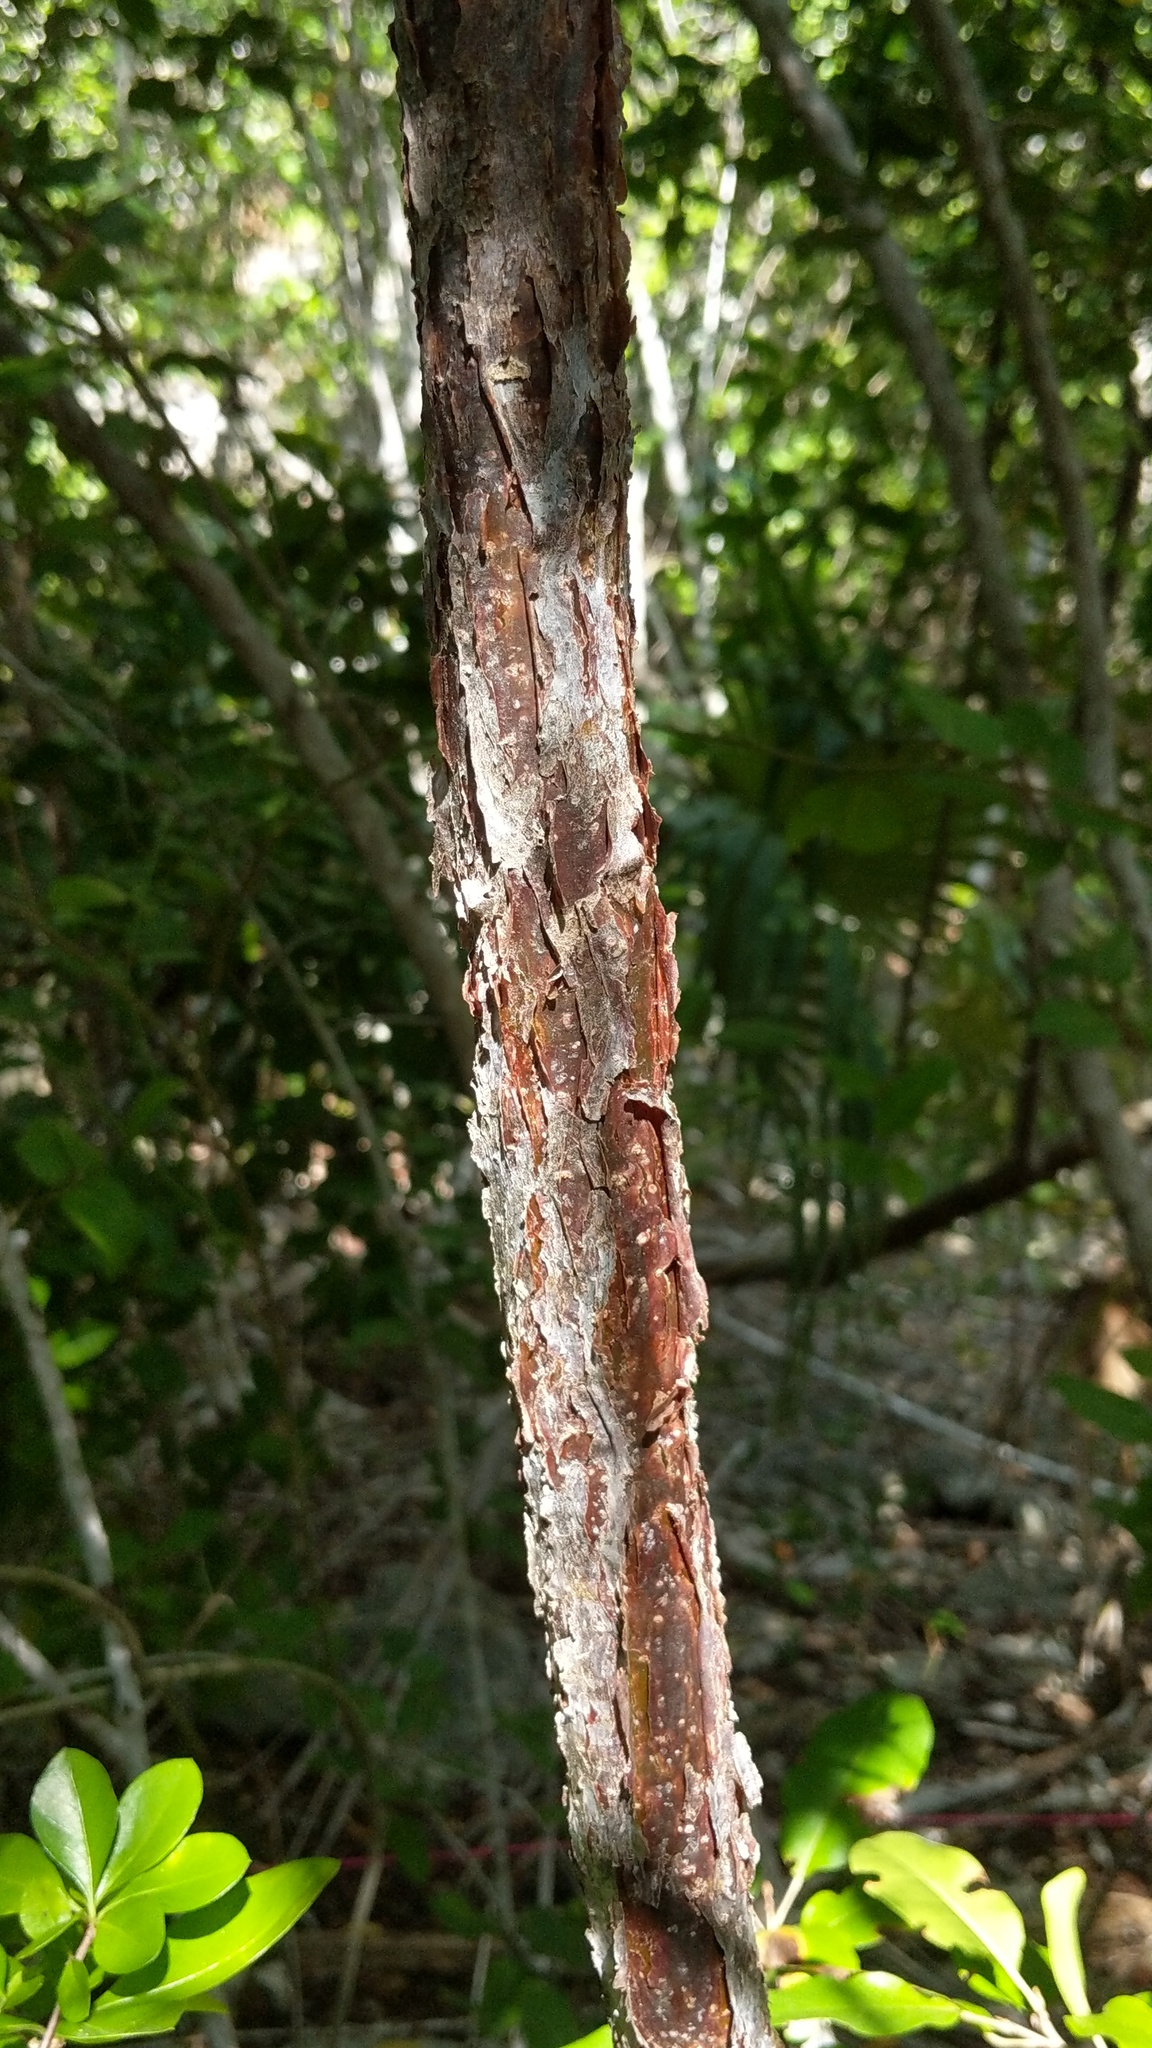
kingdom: Plantae
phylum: Tracheophyta
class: Magnoliopsida
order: Sapindales
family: Burseraceae
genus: Bursera
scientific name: Bursera simaruba
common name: Turpentine tree
